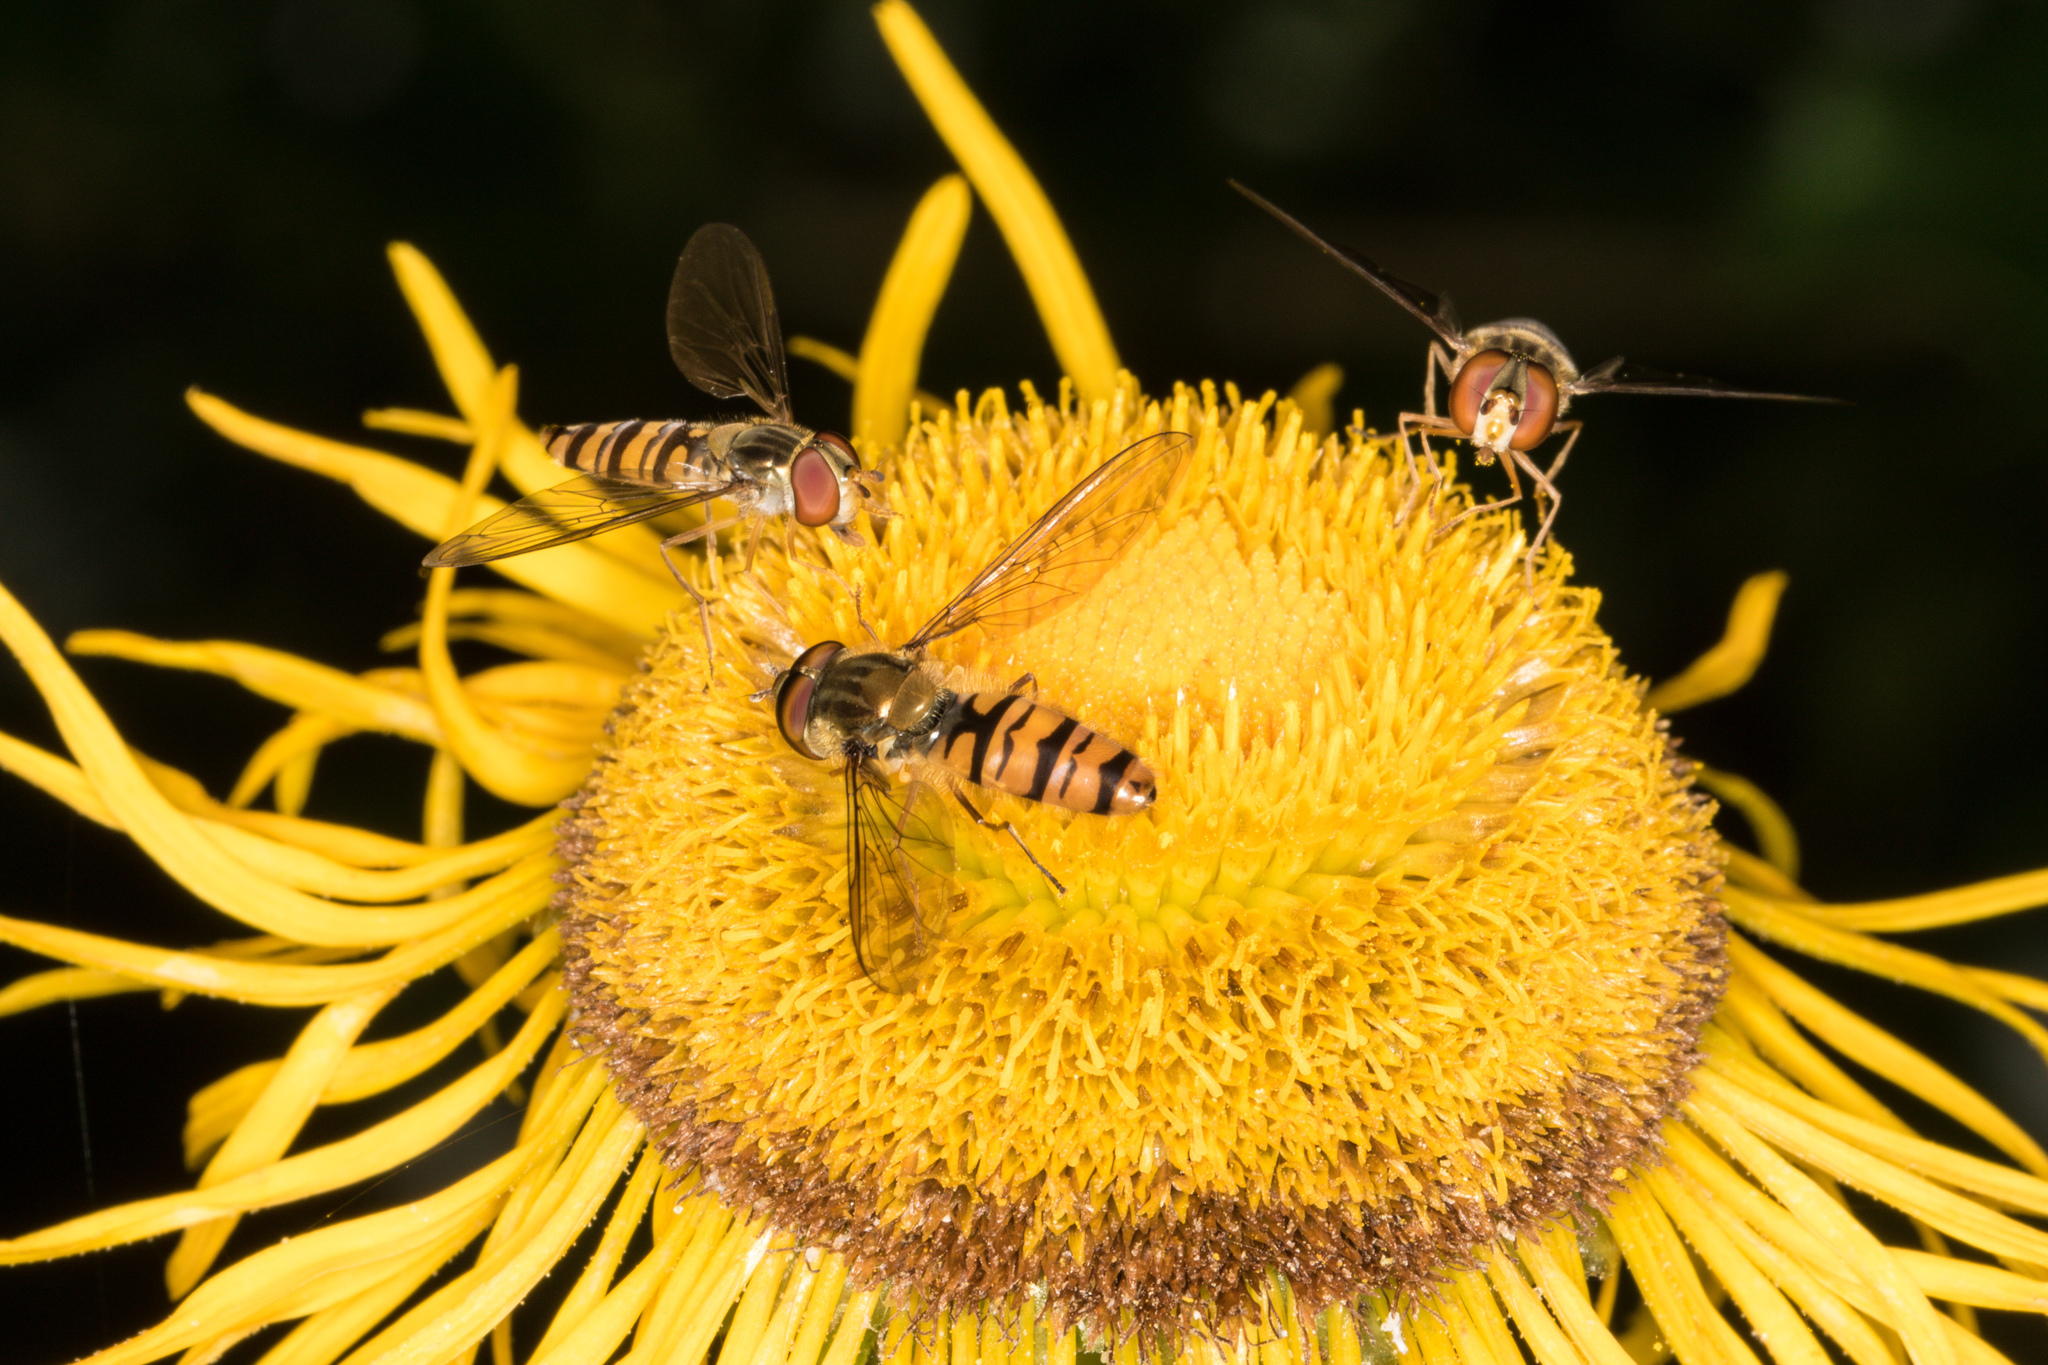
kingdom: Animalia
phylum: Arthropoda
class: Insecta
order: Diptera
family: Syrphidae
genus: Episyrphus
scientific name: Episyrphus balteatus
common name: Marmalade hoverfly
